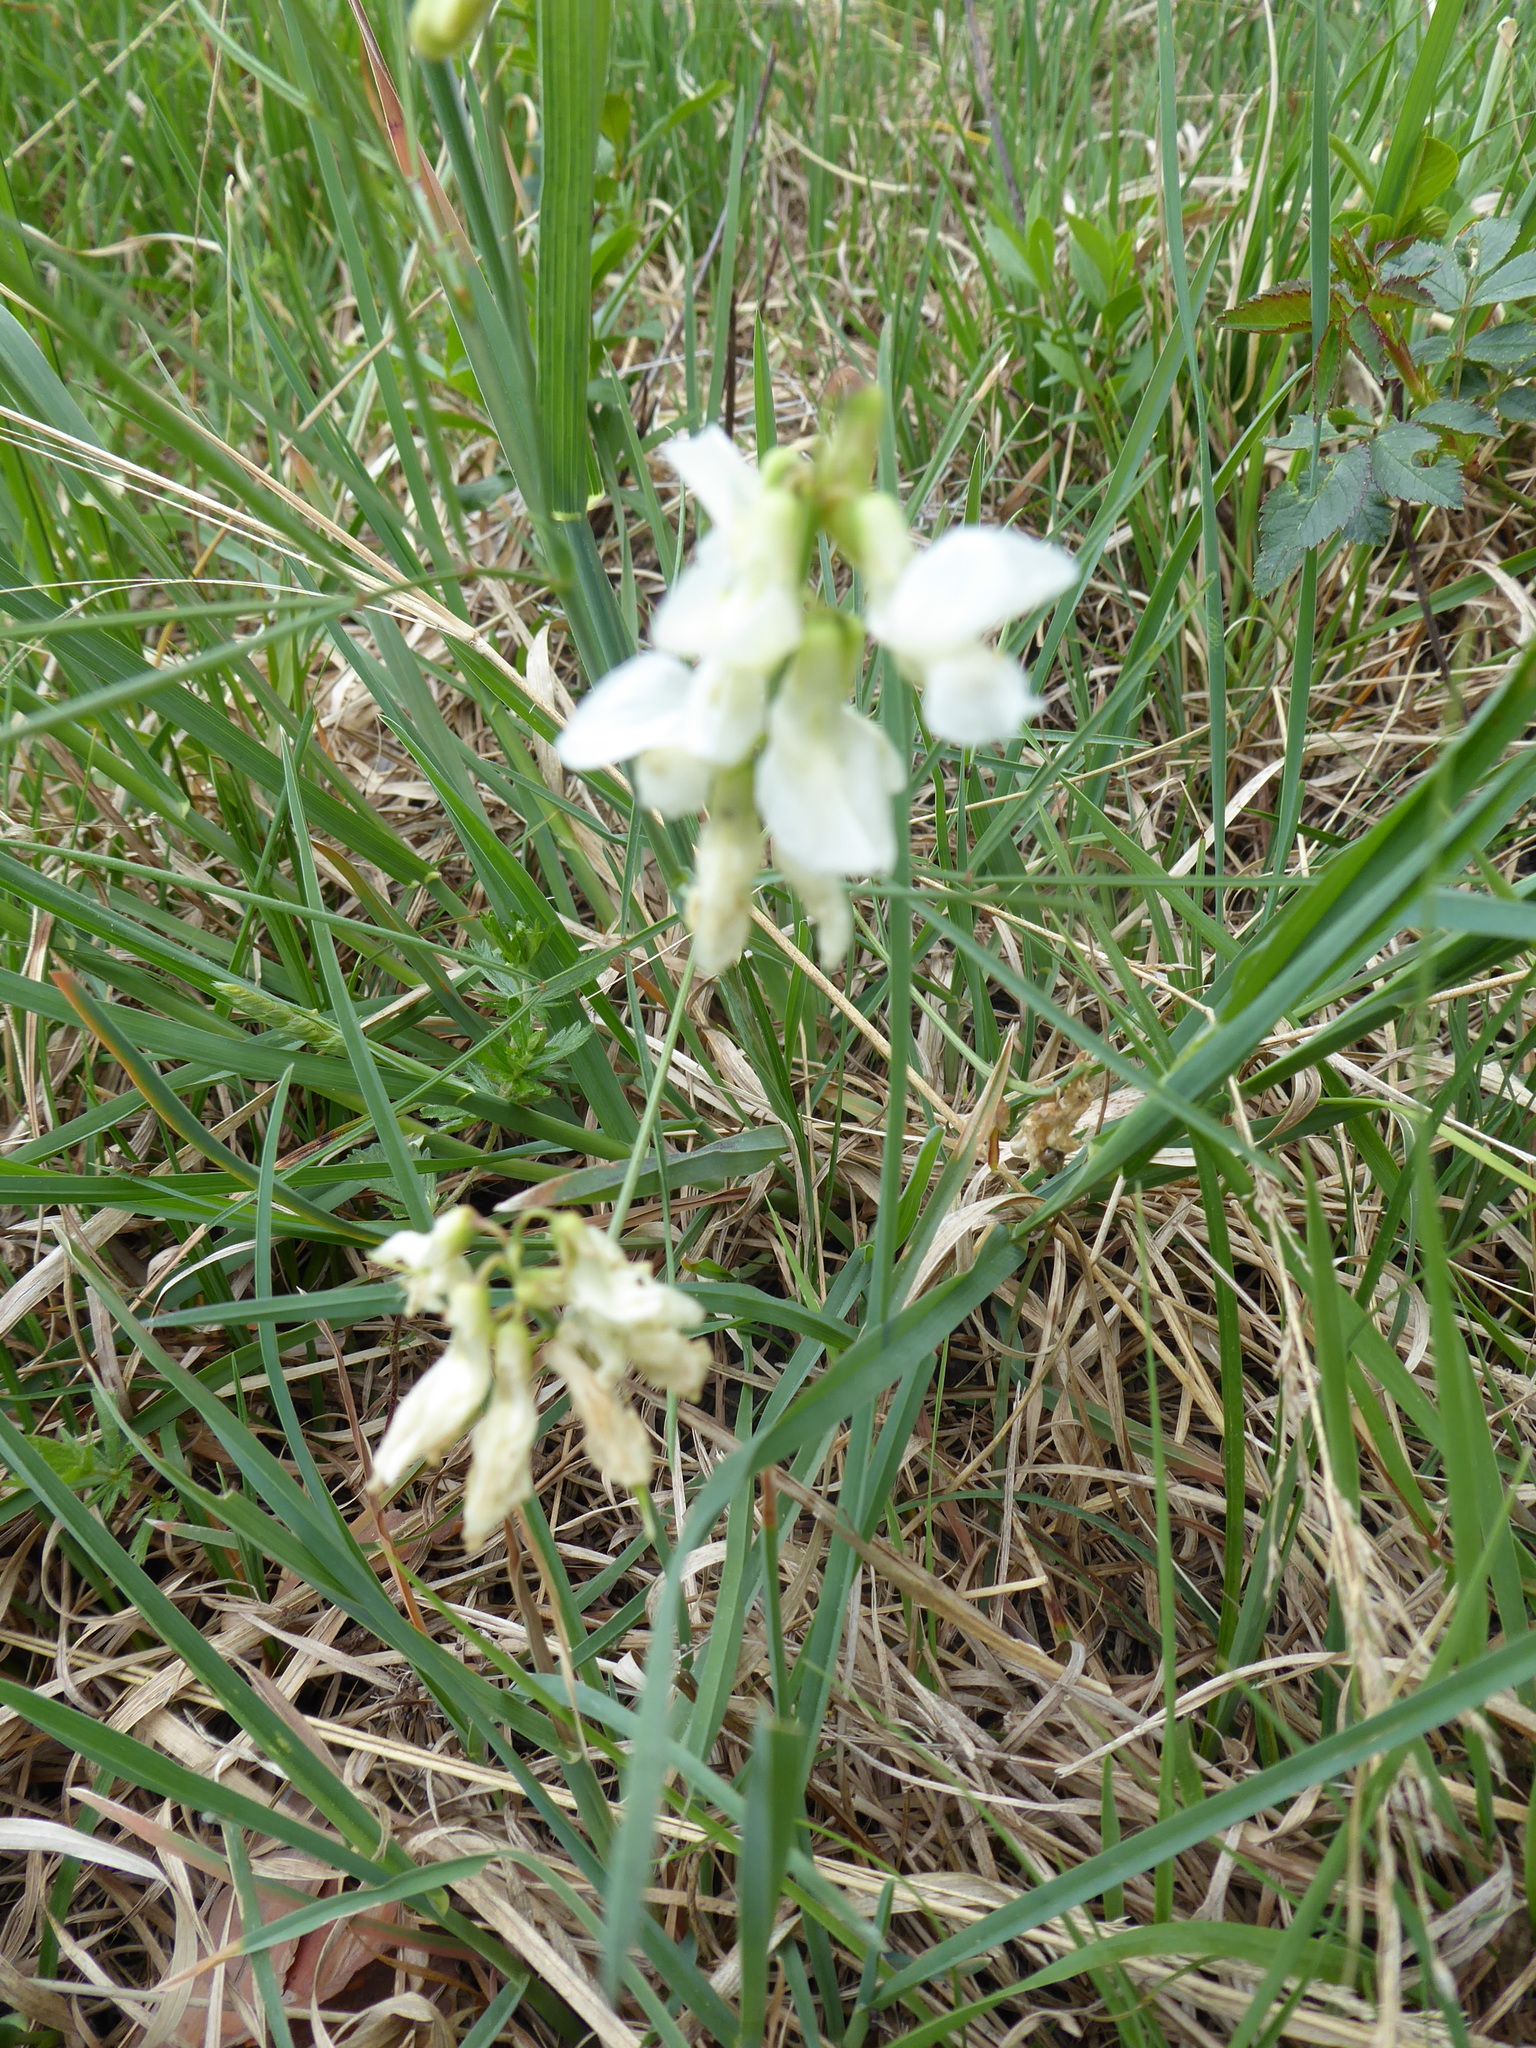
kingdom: Plantae
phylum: Tracheophyta
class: Magnoliopsida
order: Fabales
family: Fabaceae
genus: Lathyrus
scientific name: Lathyrus pannonicus
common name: Pea
